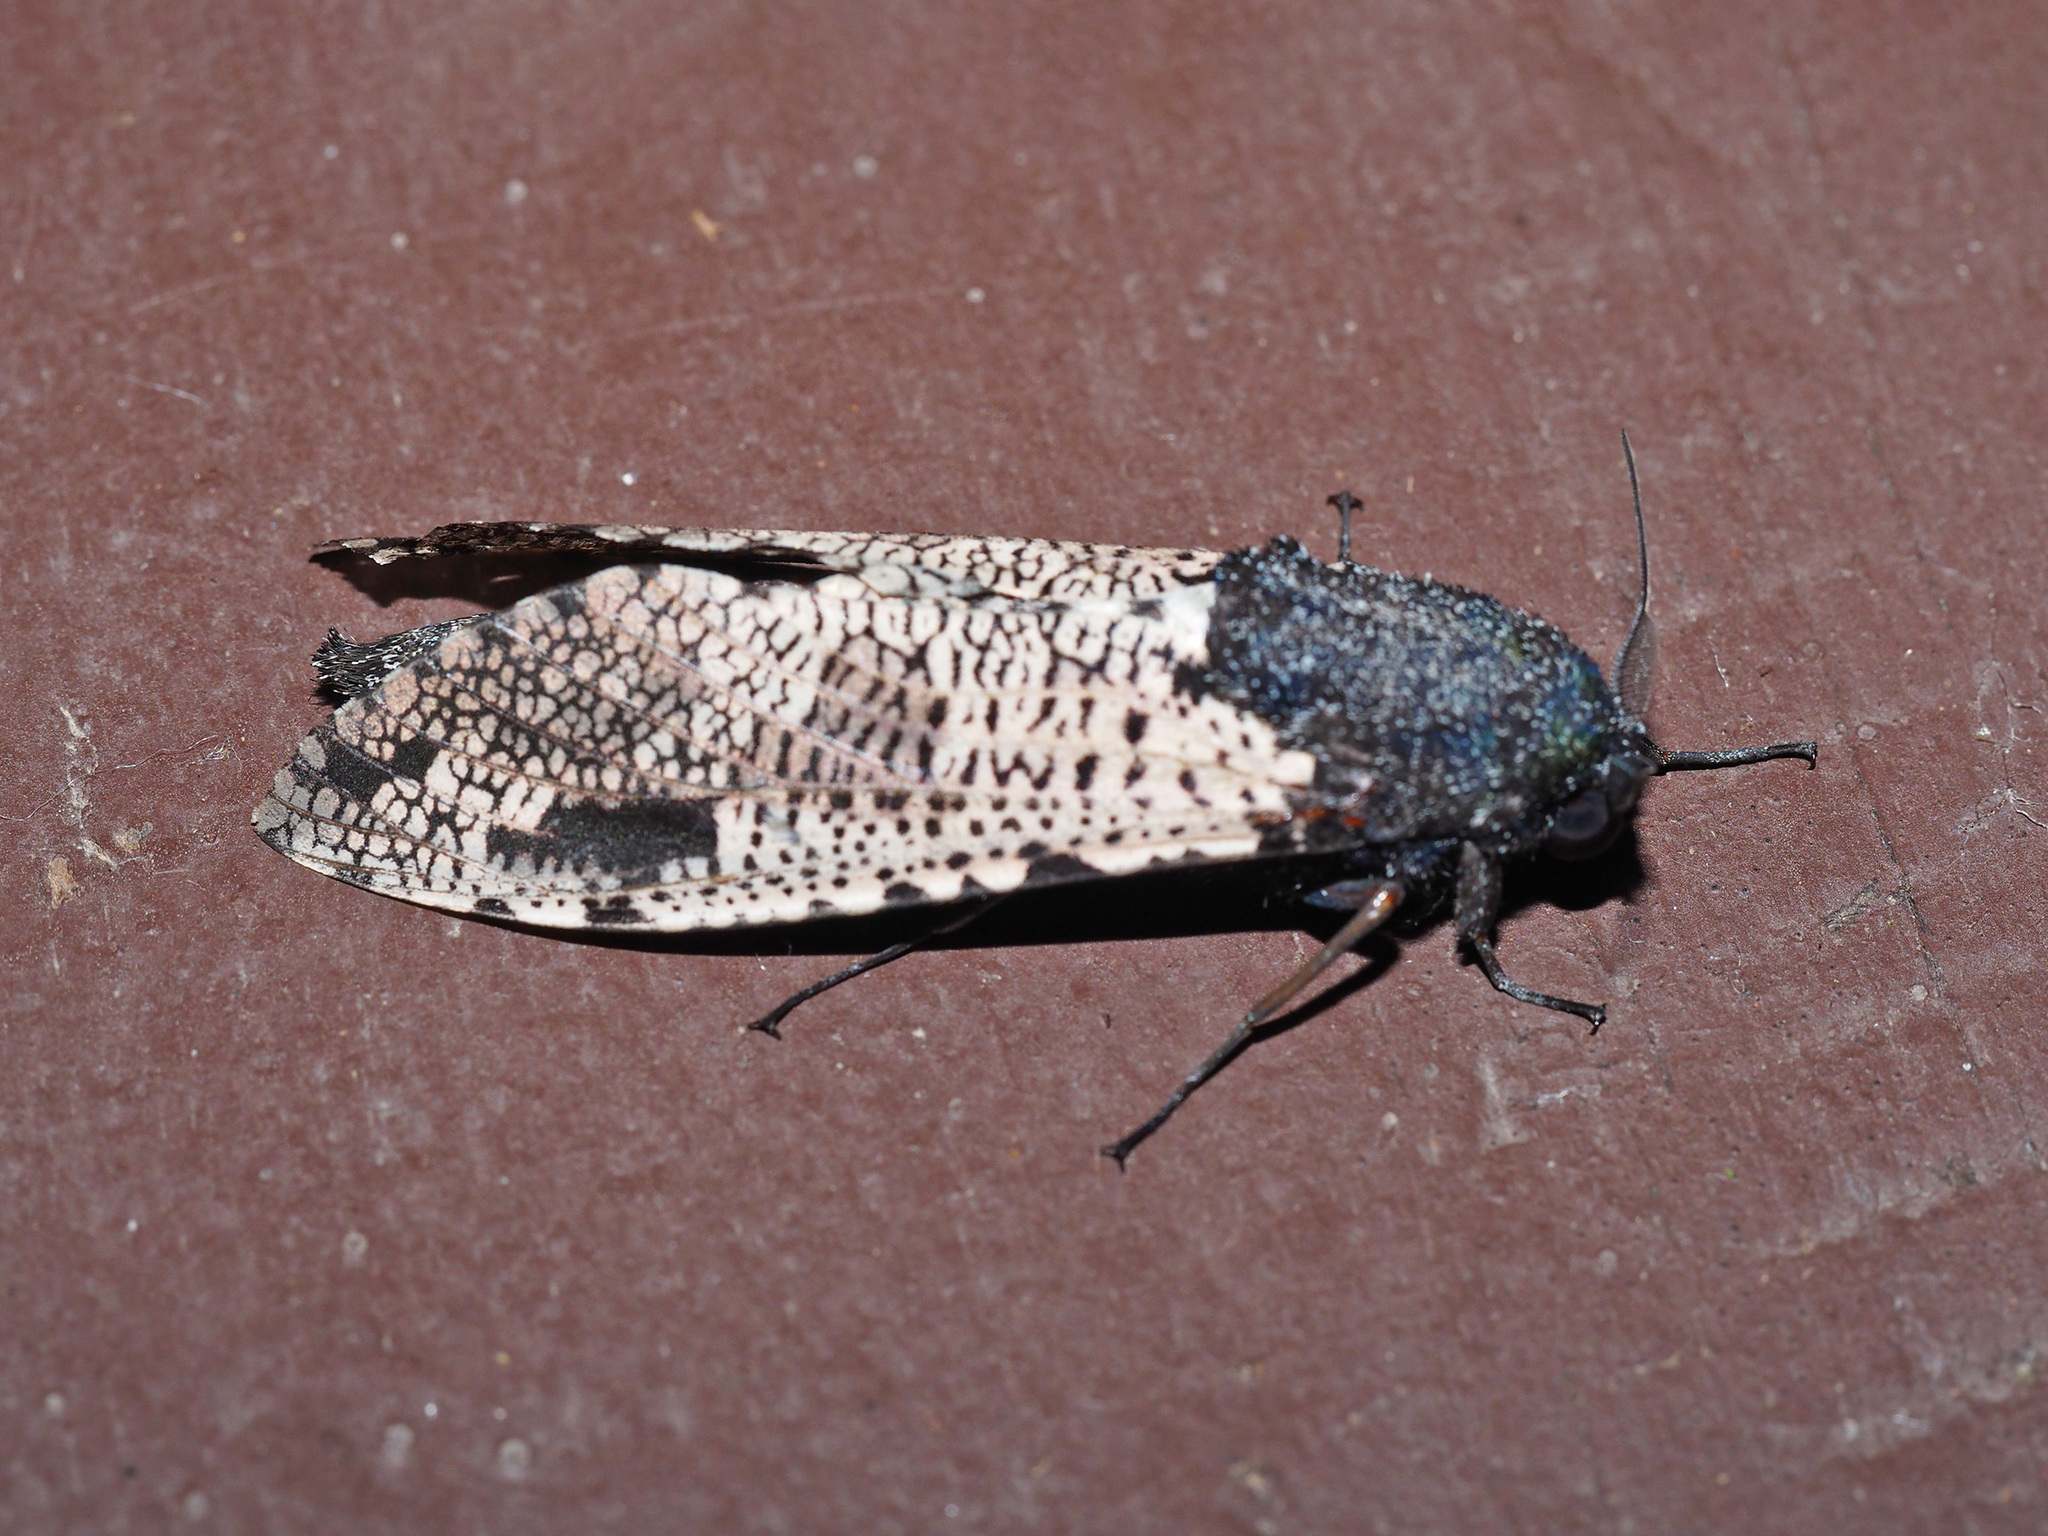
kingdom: Animalia
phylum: Arthropoda
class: Insecta
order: Lepidoptera
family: Cossidae
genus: Xyleutes
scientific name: Xyleutes strix
